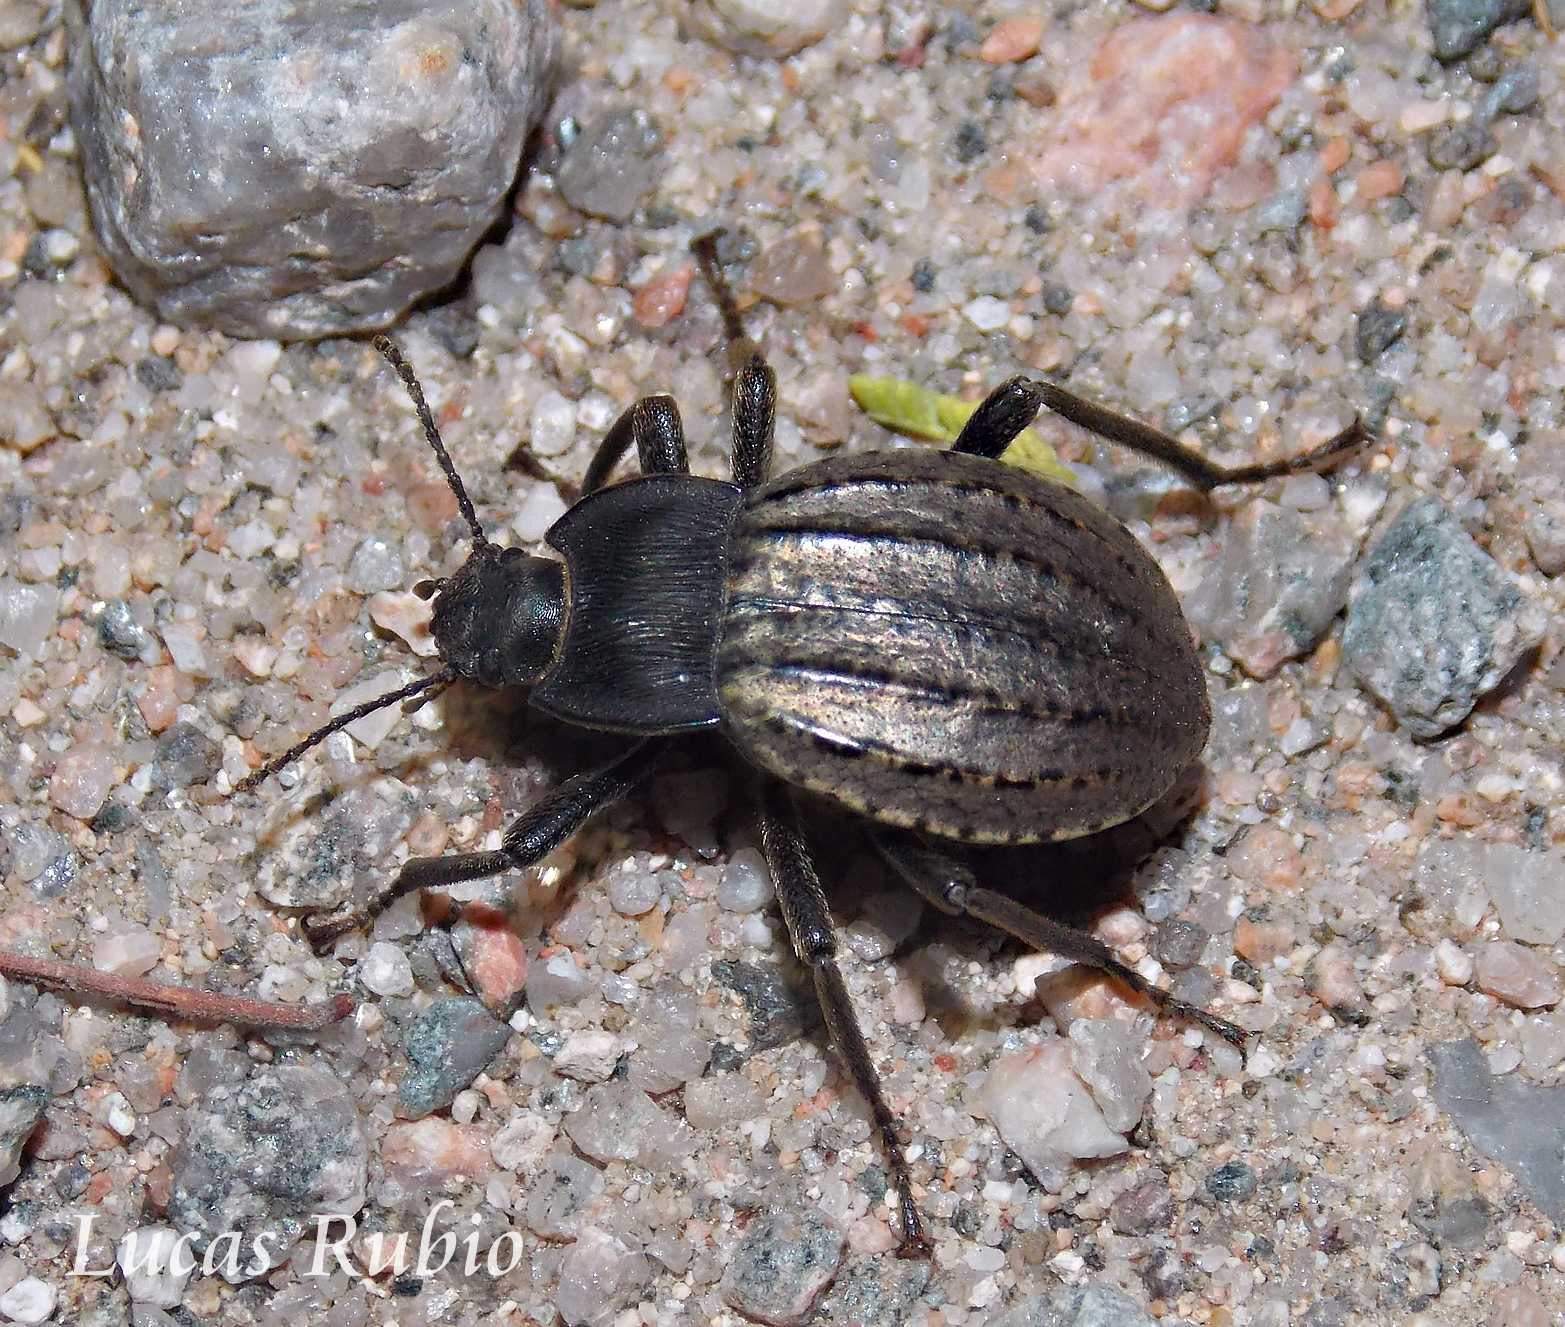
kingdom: Animalia
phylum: Arthropoda
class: Insecta
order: Coleoptera
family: Tenebrionidae
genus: Mitragenius
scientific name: Mitragenius
